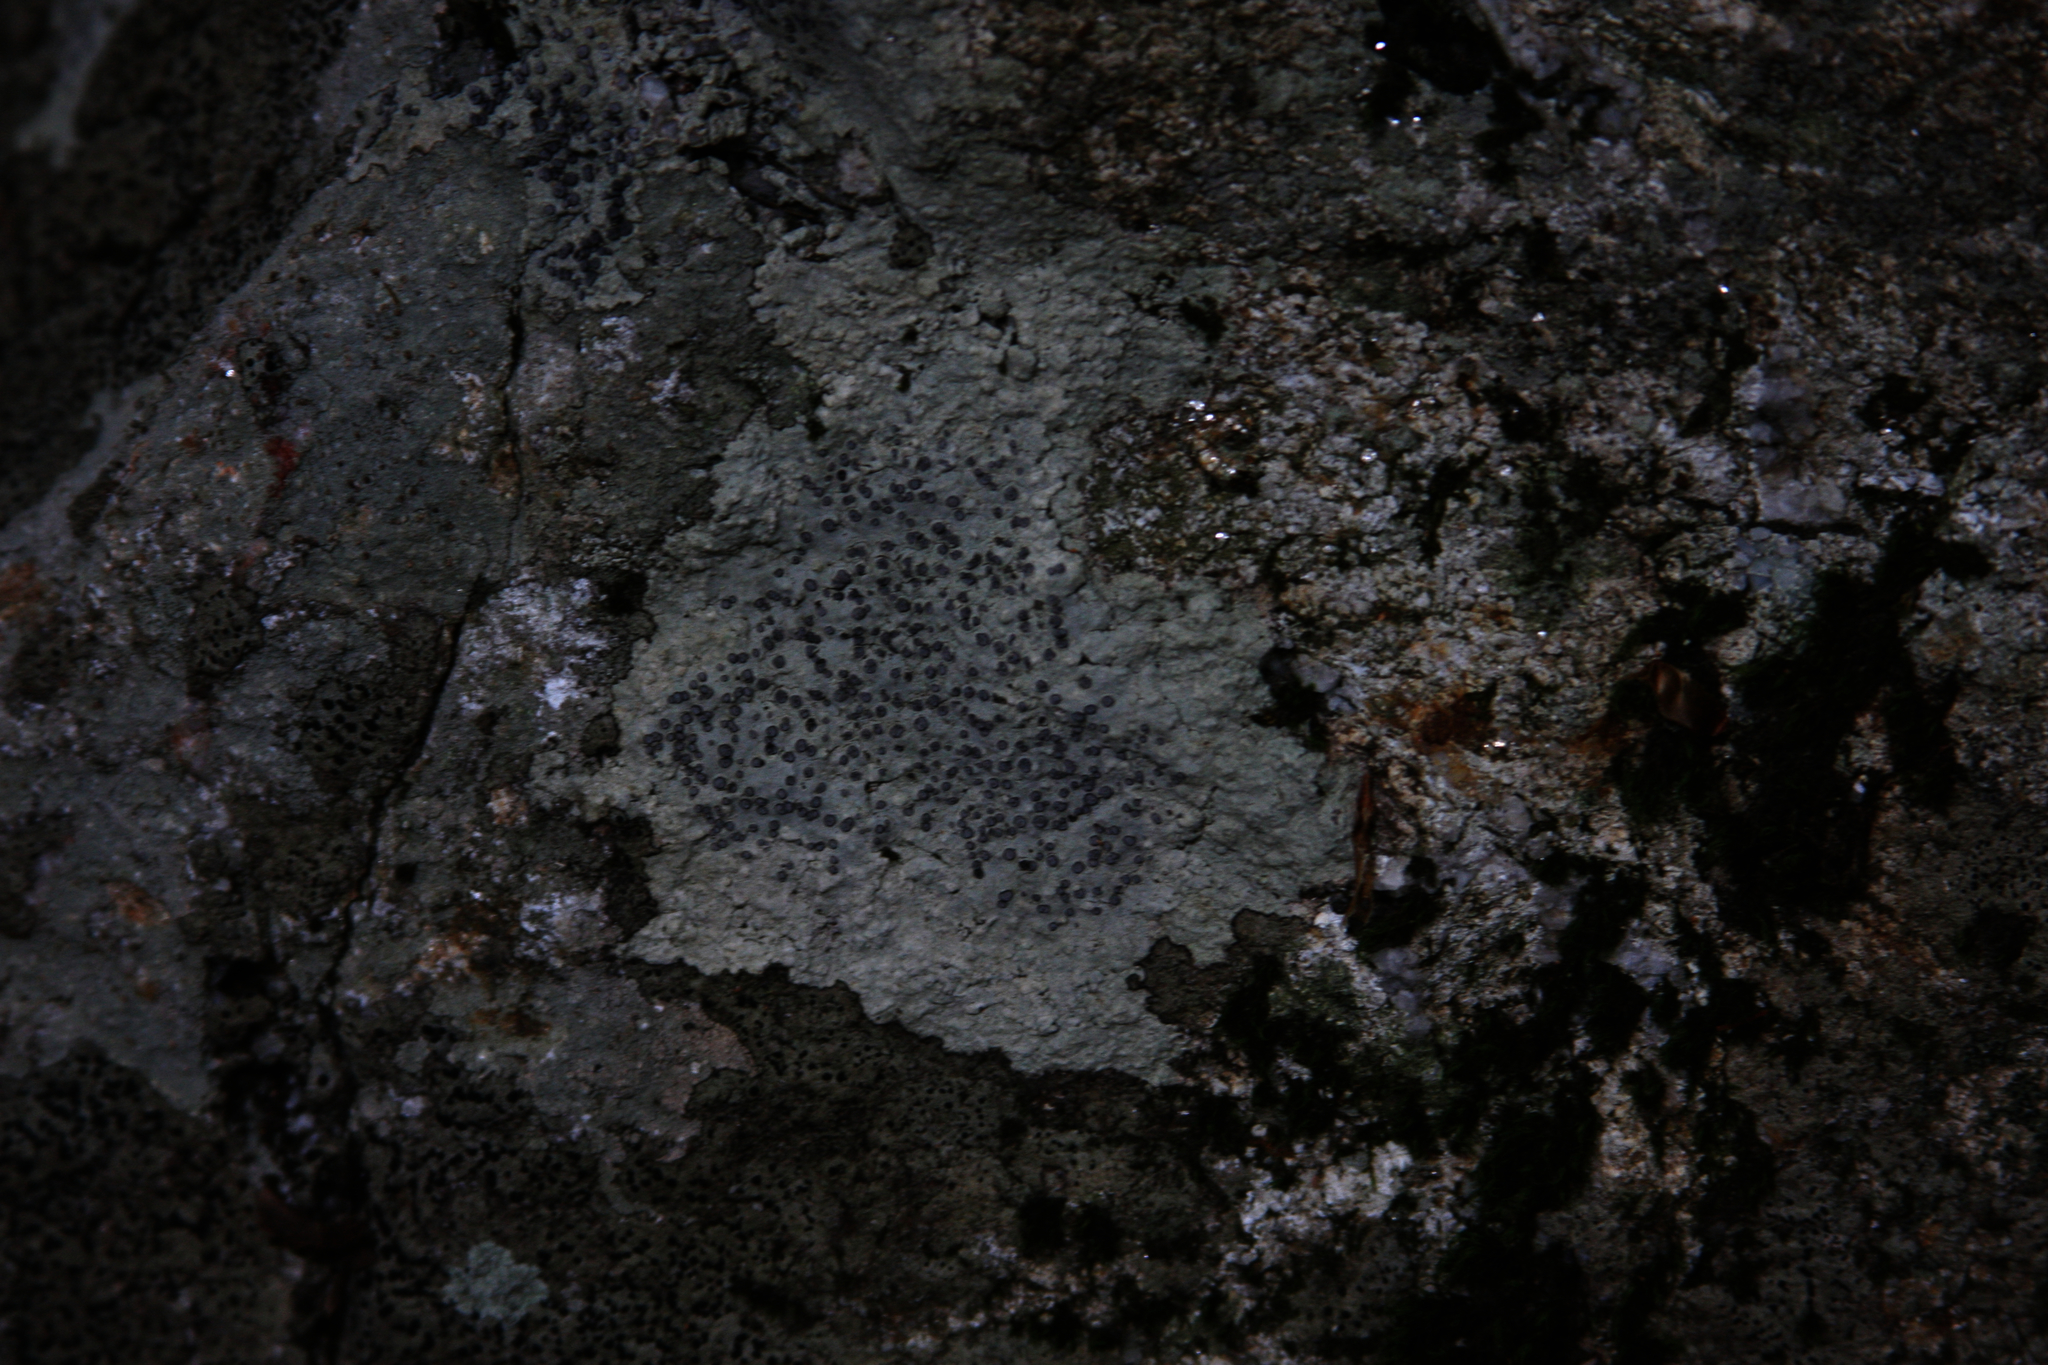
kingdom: Fungi
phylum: Ascomycota
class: Lecanoromycetes
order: Lecideales
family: Lecideaceae
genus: Porpidia
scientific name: Porpidia albocaerulescens
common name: Smokey-eyed boulder lichen
